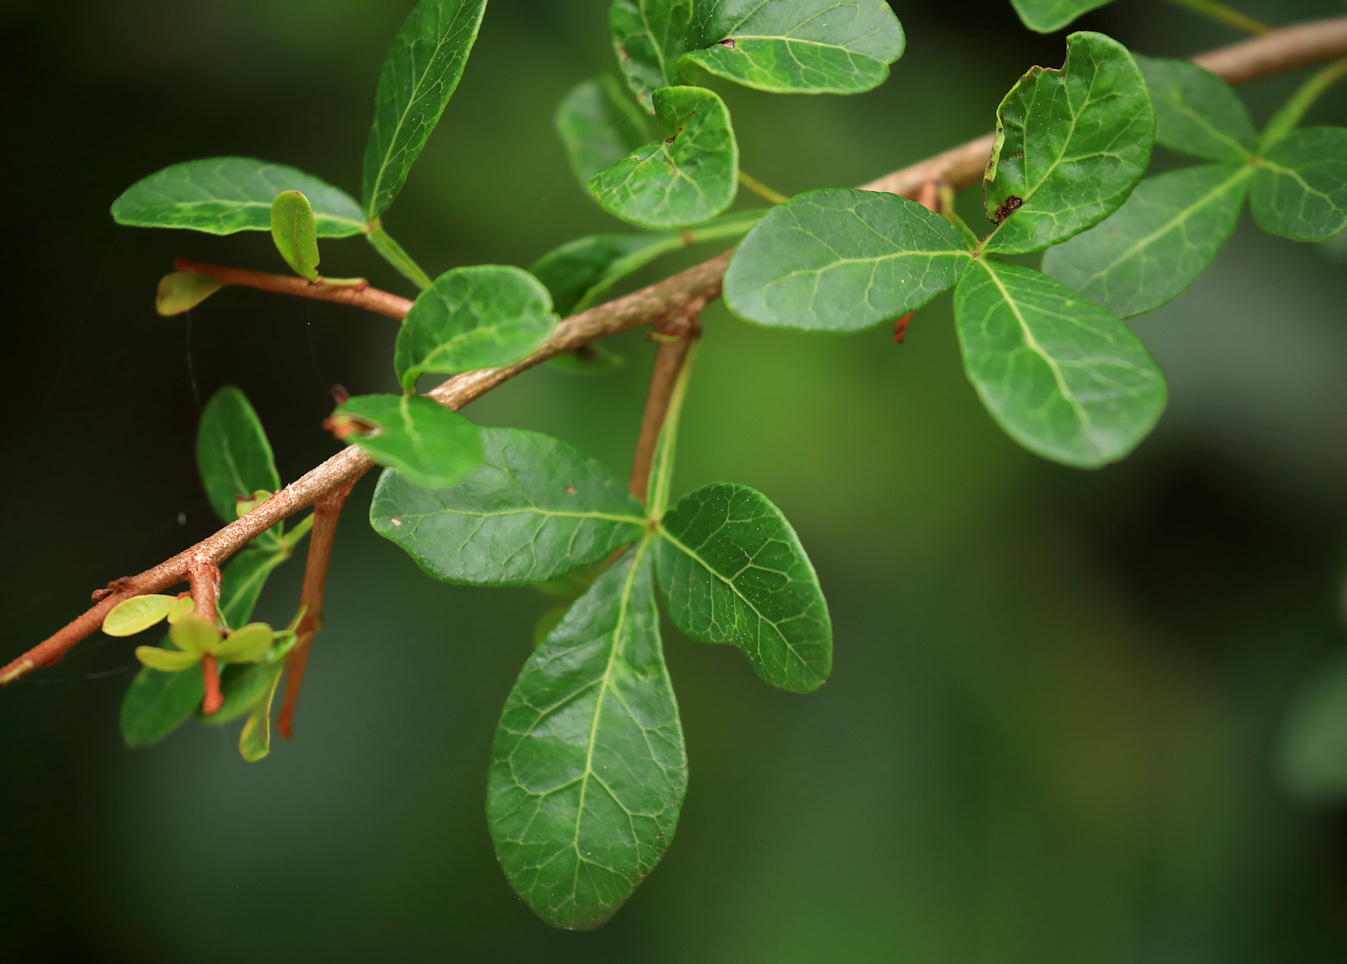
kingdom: Plantae
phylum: Tracheophyta
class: Magnoliopsida
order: Sapindales
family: Anacardiaceae
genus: Searsia
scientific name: Searsia pterota
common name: Winged currant
